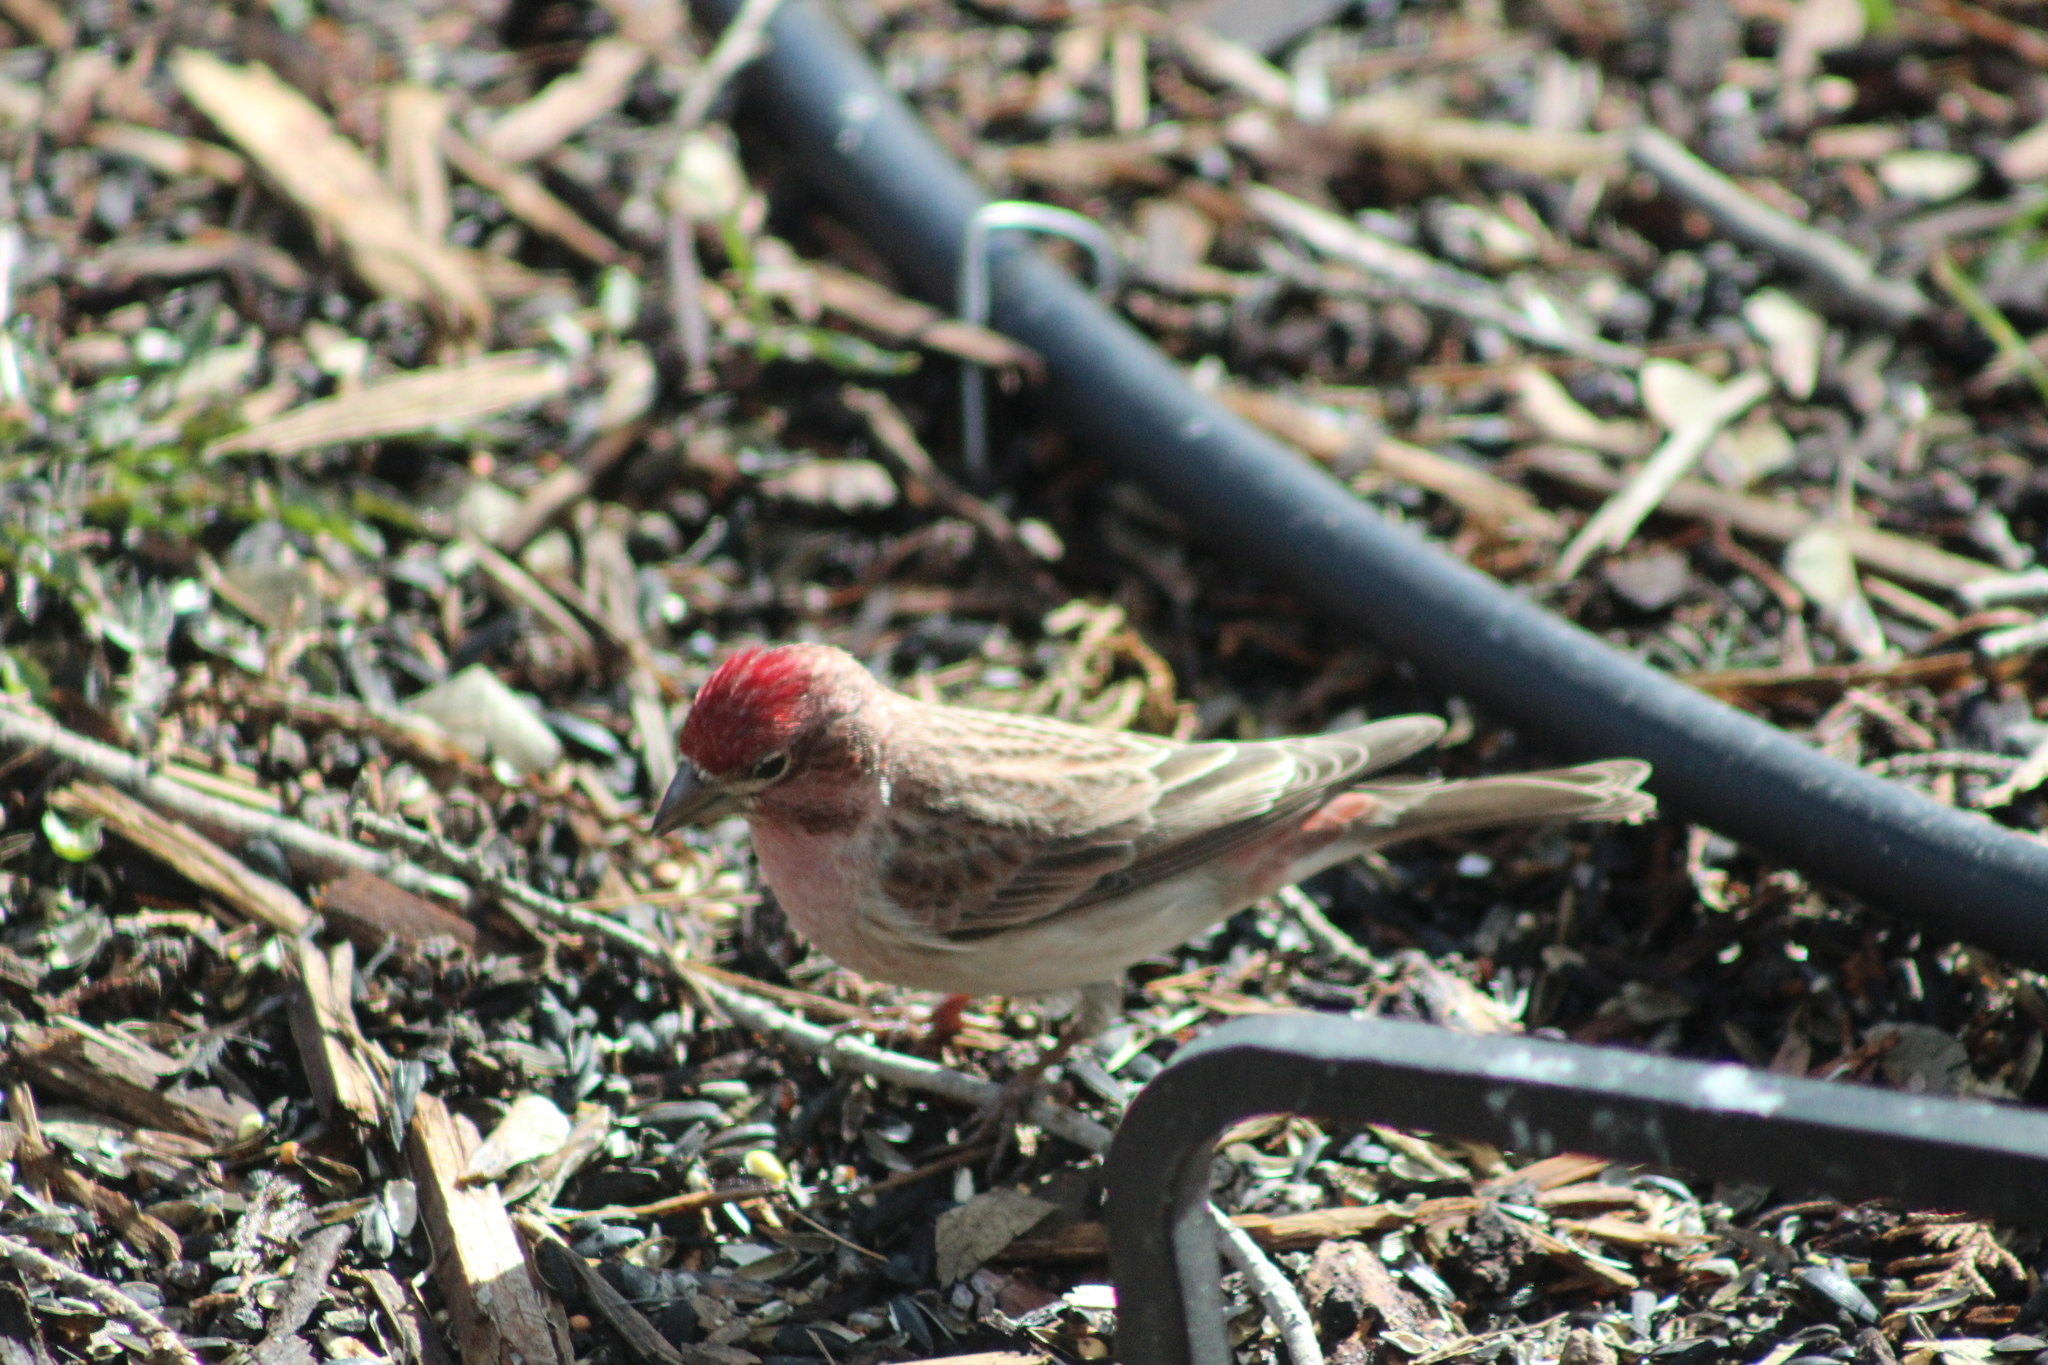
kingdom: Animalia
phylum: Chordata
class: Aves
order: Passeriformes
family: Fringillidae
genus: Haemorhous
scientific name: Haemorhous cassinii
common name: Cassin's finch
